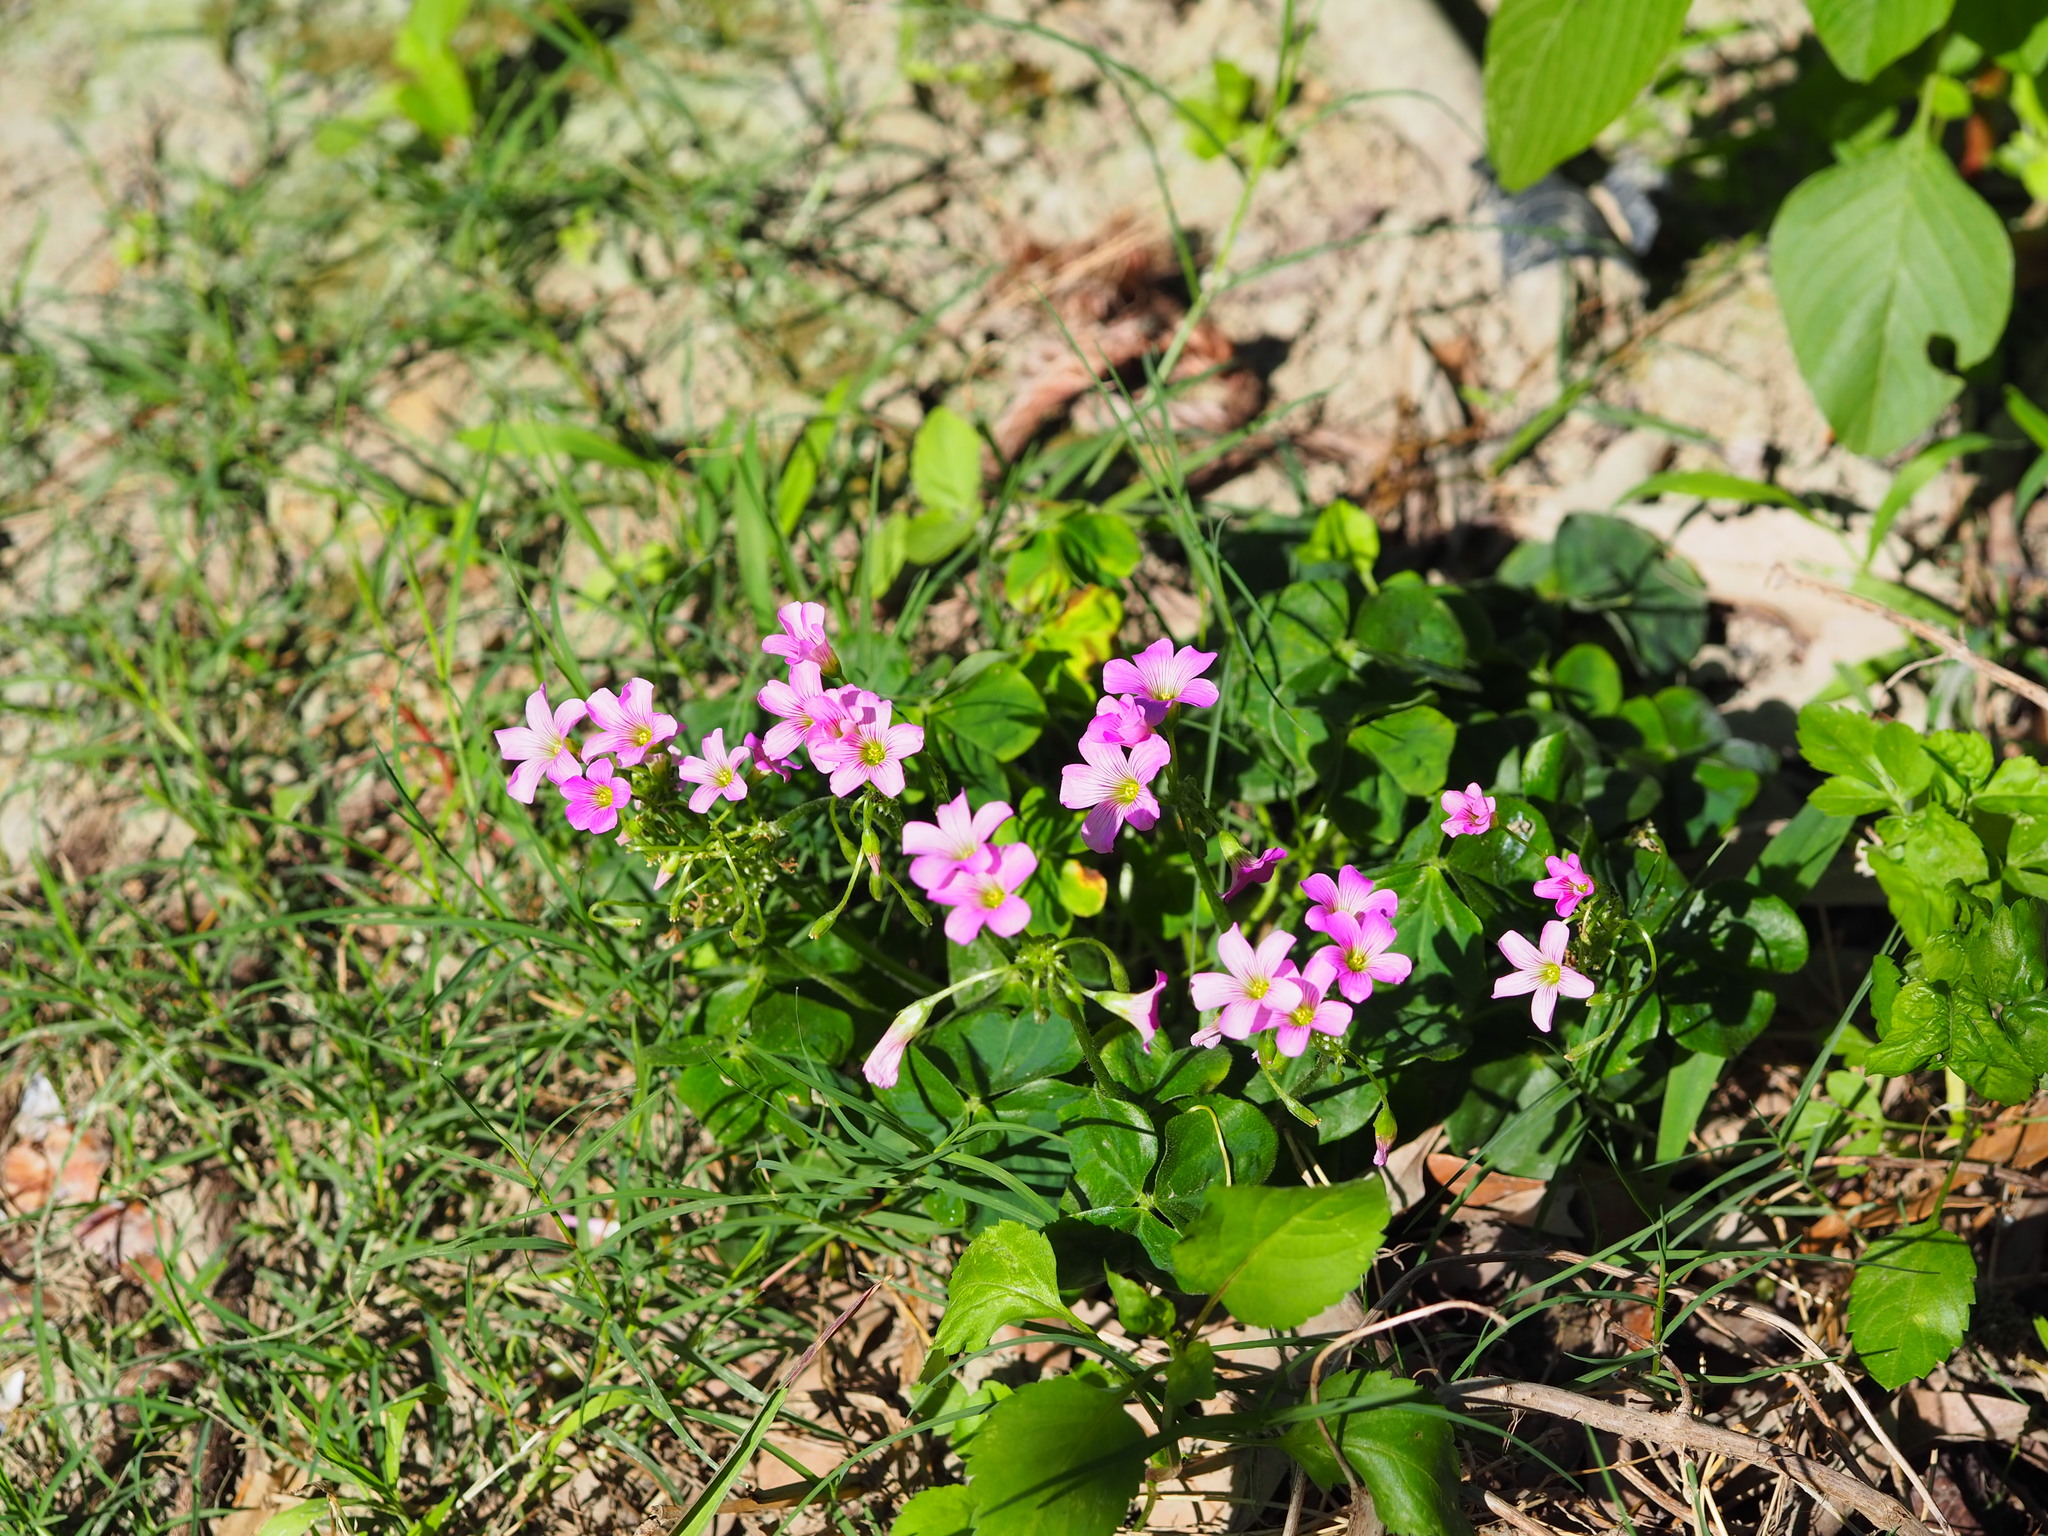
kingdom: Plantae
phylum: Tracheophyta
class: Magnoliopsida
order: Oxalidales
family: Oxalidaceae
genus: Oxalis
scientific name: Oxalis debilis
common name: Large-flowered pink-sorrel
